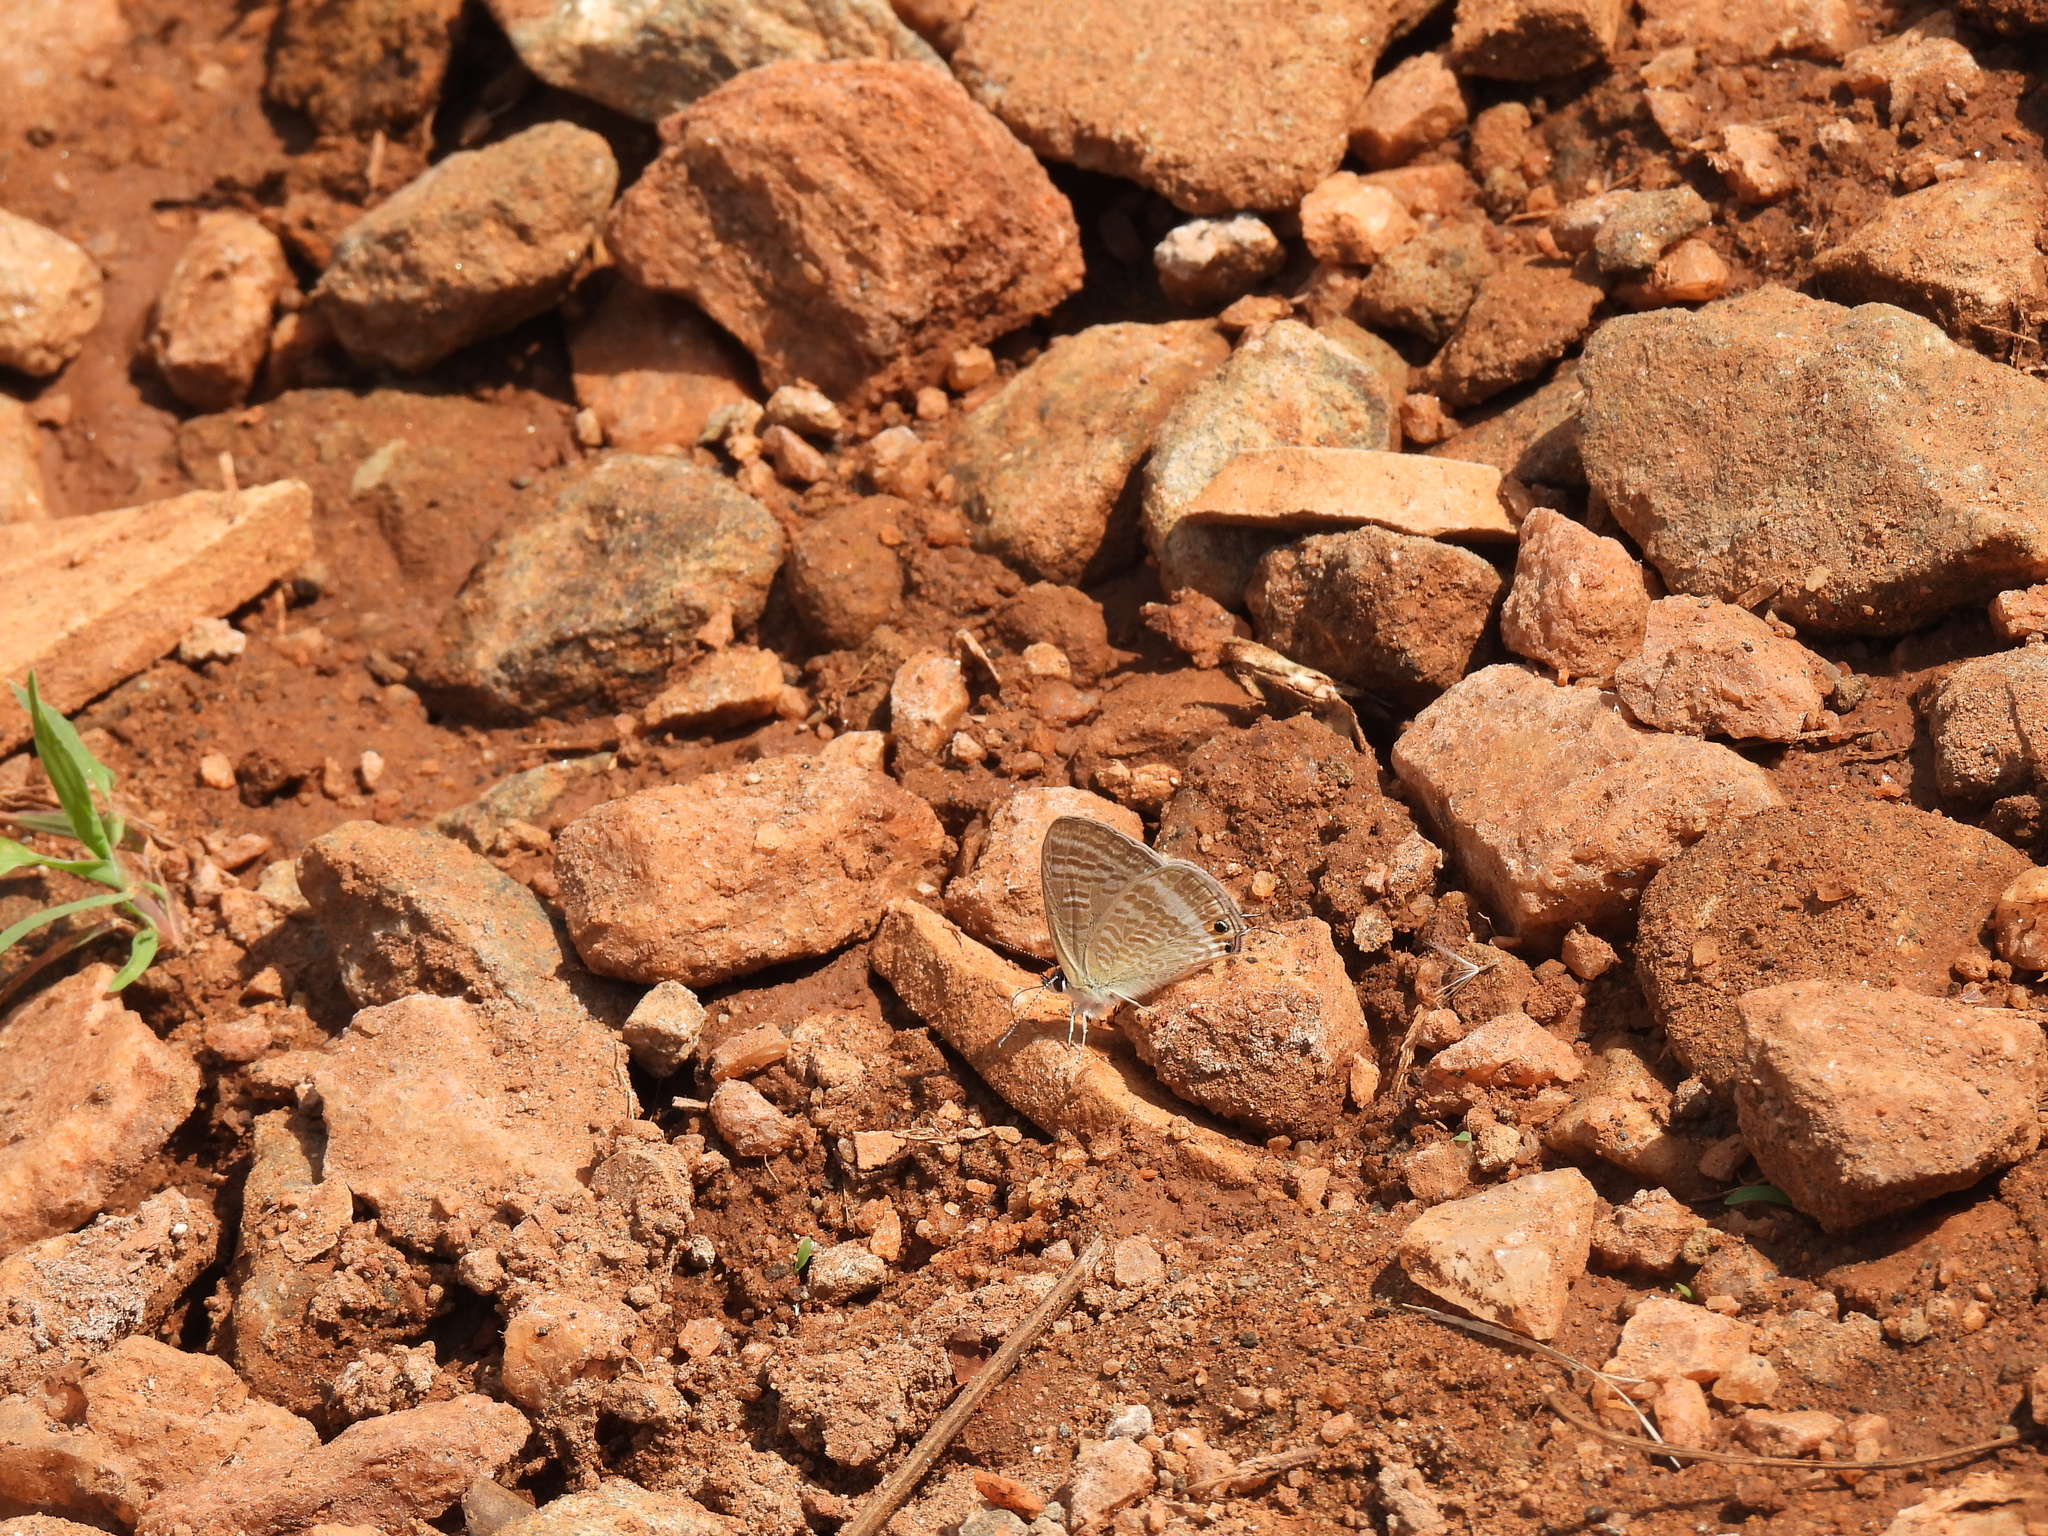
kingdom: Animalia
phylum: Arthropoda
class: Insecta
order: Lepidoptera
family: Lycaenidae
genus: Lampides
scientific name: Lampides boeticus
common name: Long-tailed blue
